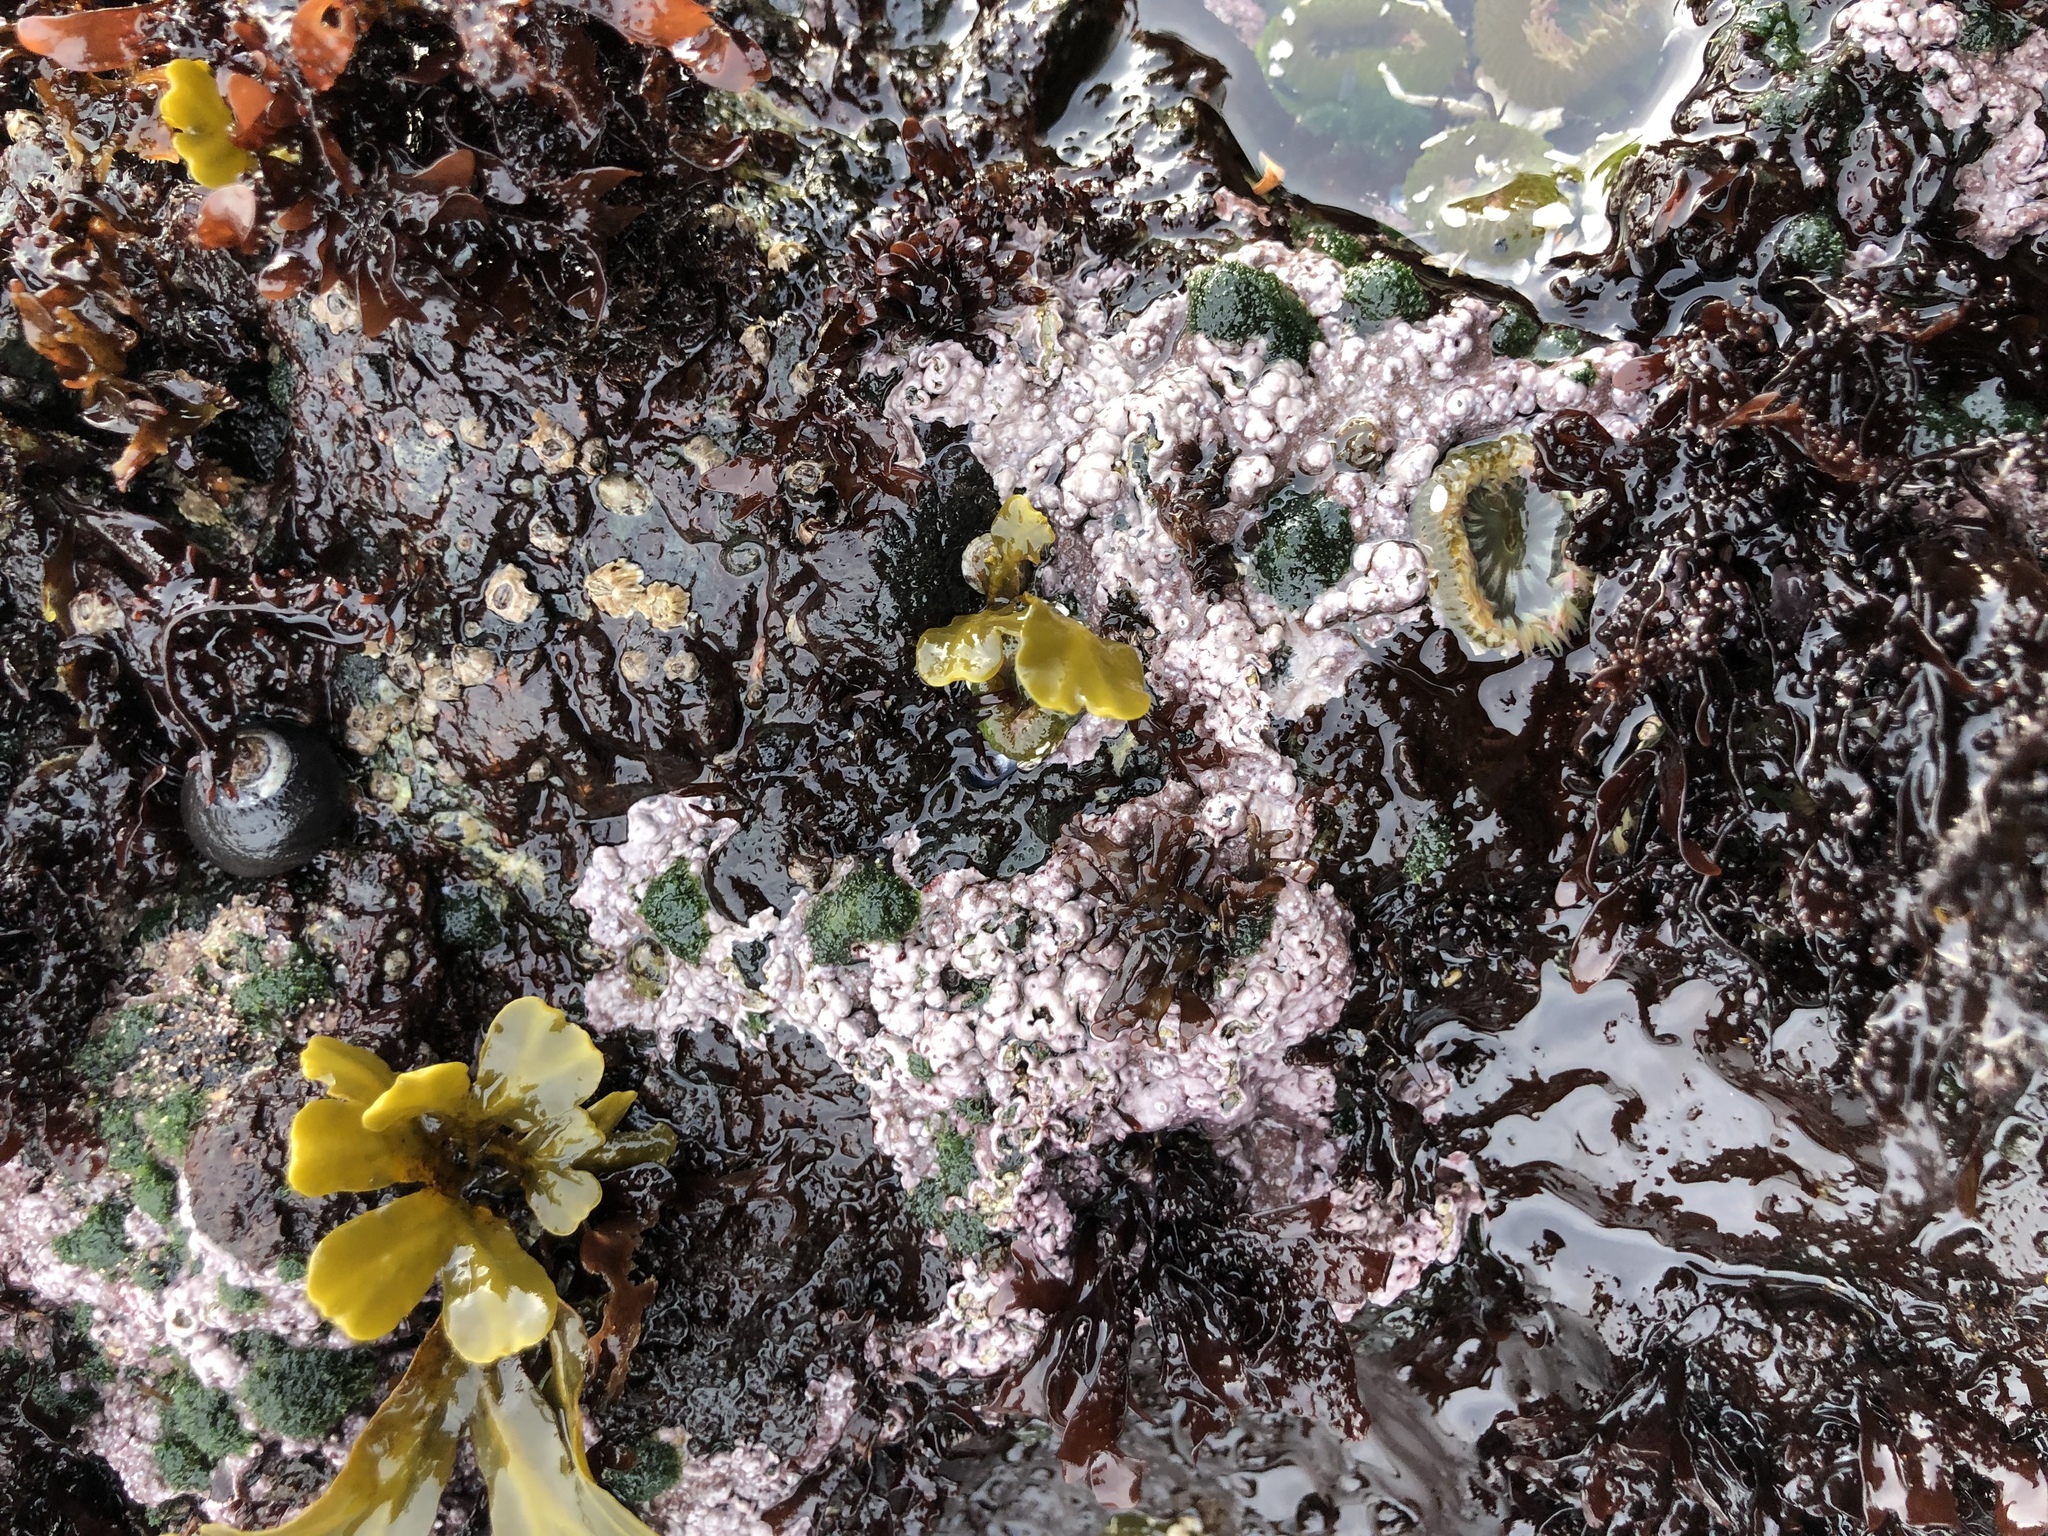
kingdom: Plantae
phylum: Rhodophyta
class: Florideophyceae
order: Corallinales
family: Corallinaceae
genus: Chamberlainium
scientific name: Chamberlainium tumidum
